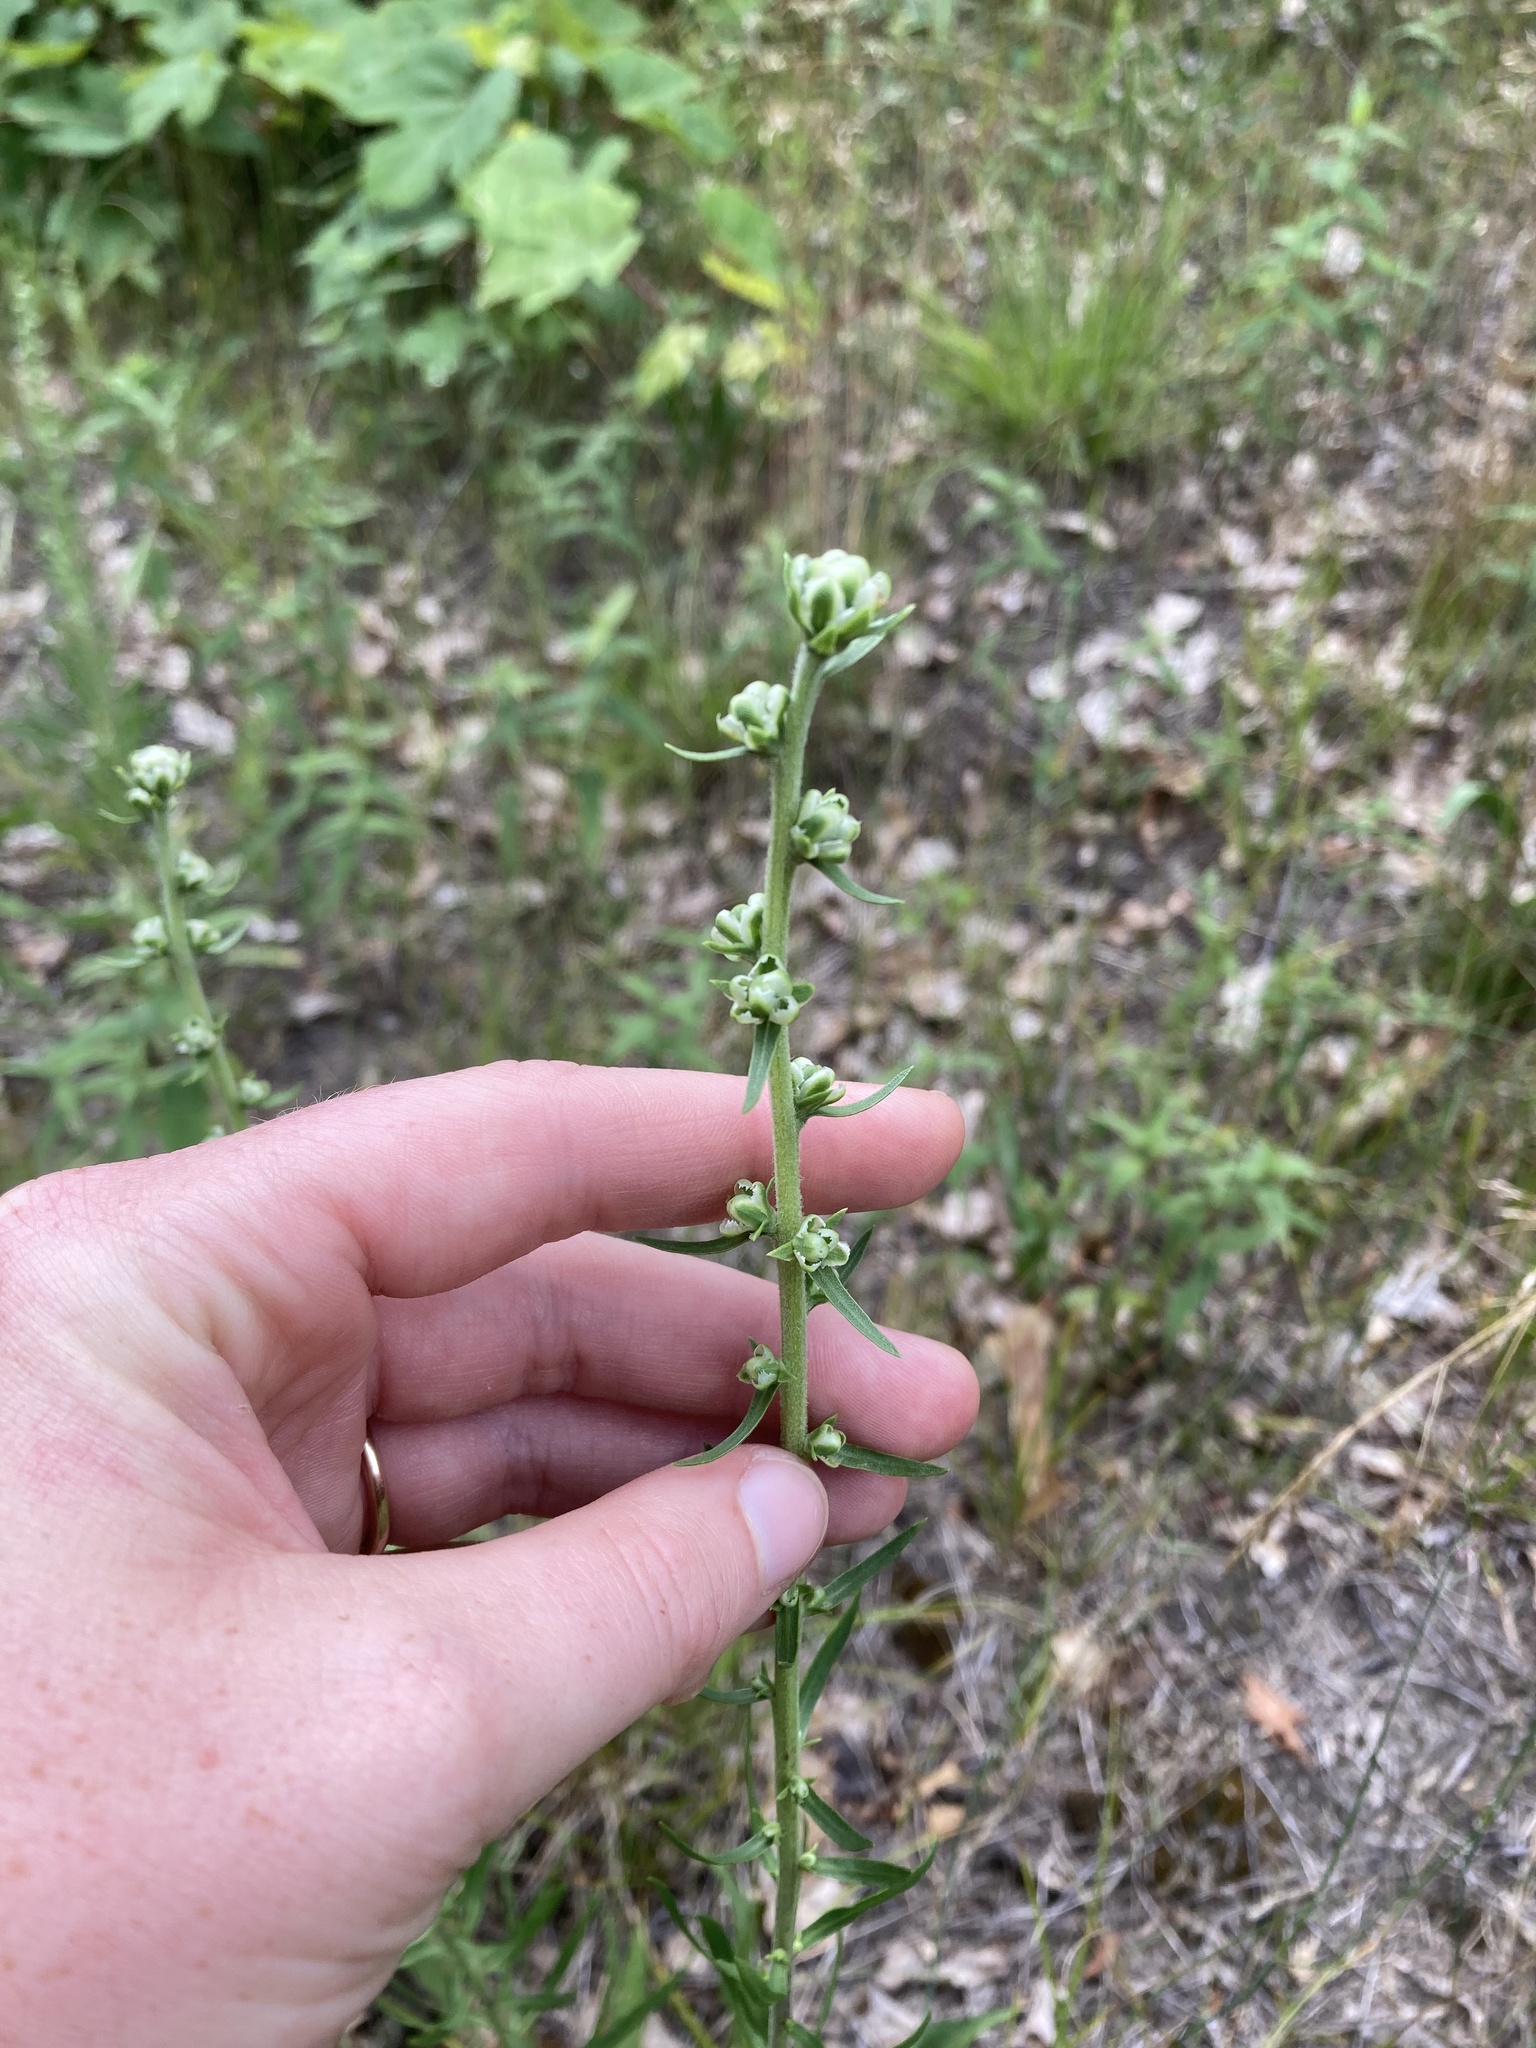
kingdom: Plantae
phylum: Tracheophyta
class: Magnoliopsida
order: Asterales
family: Asteraceae
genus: Liatris
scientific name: Liatris aspera
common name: Lacerate blazing-star
